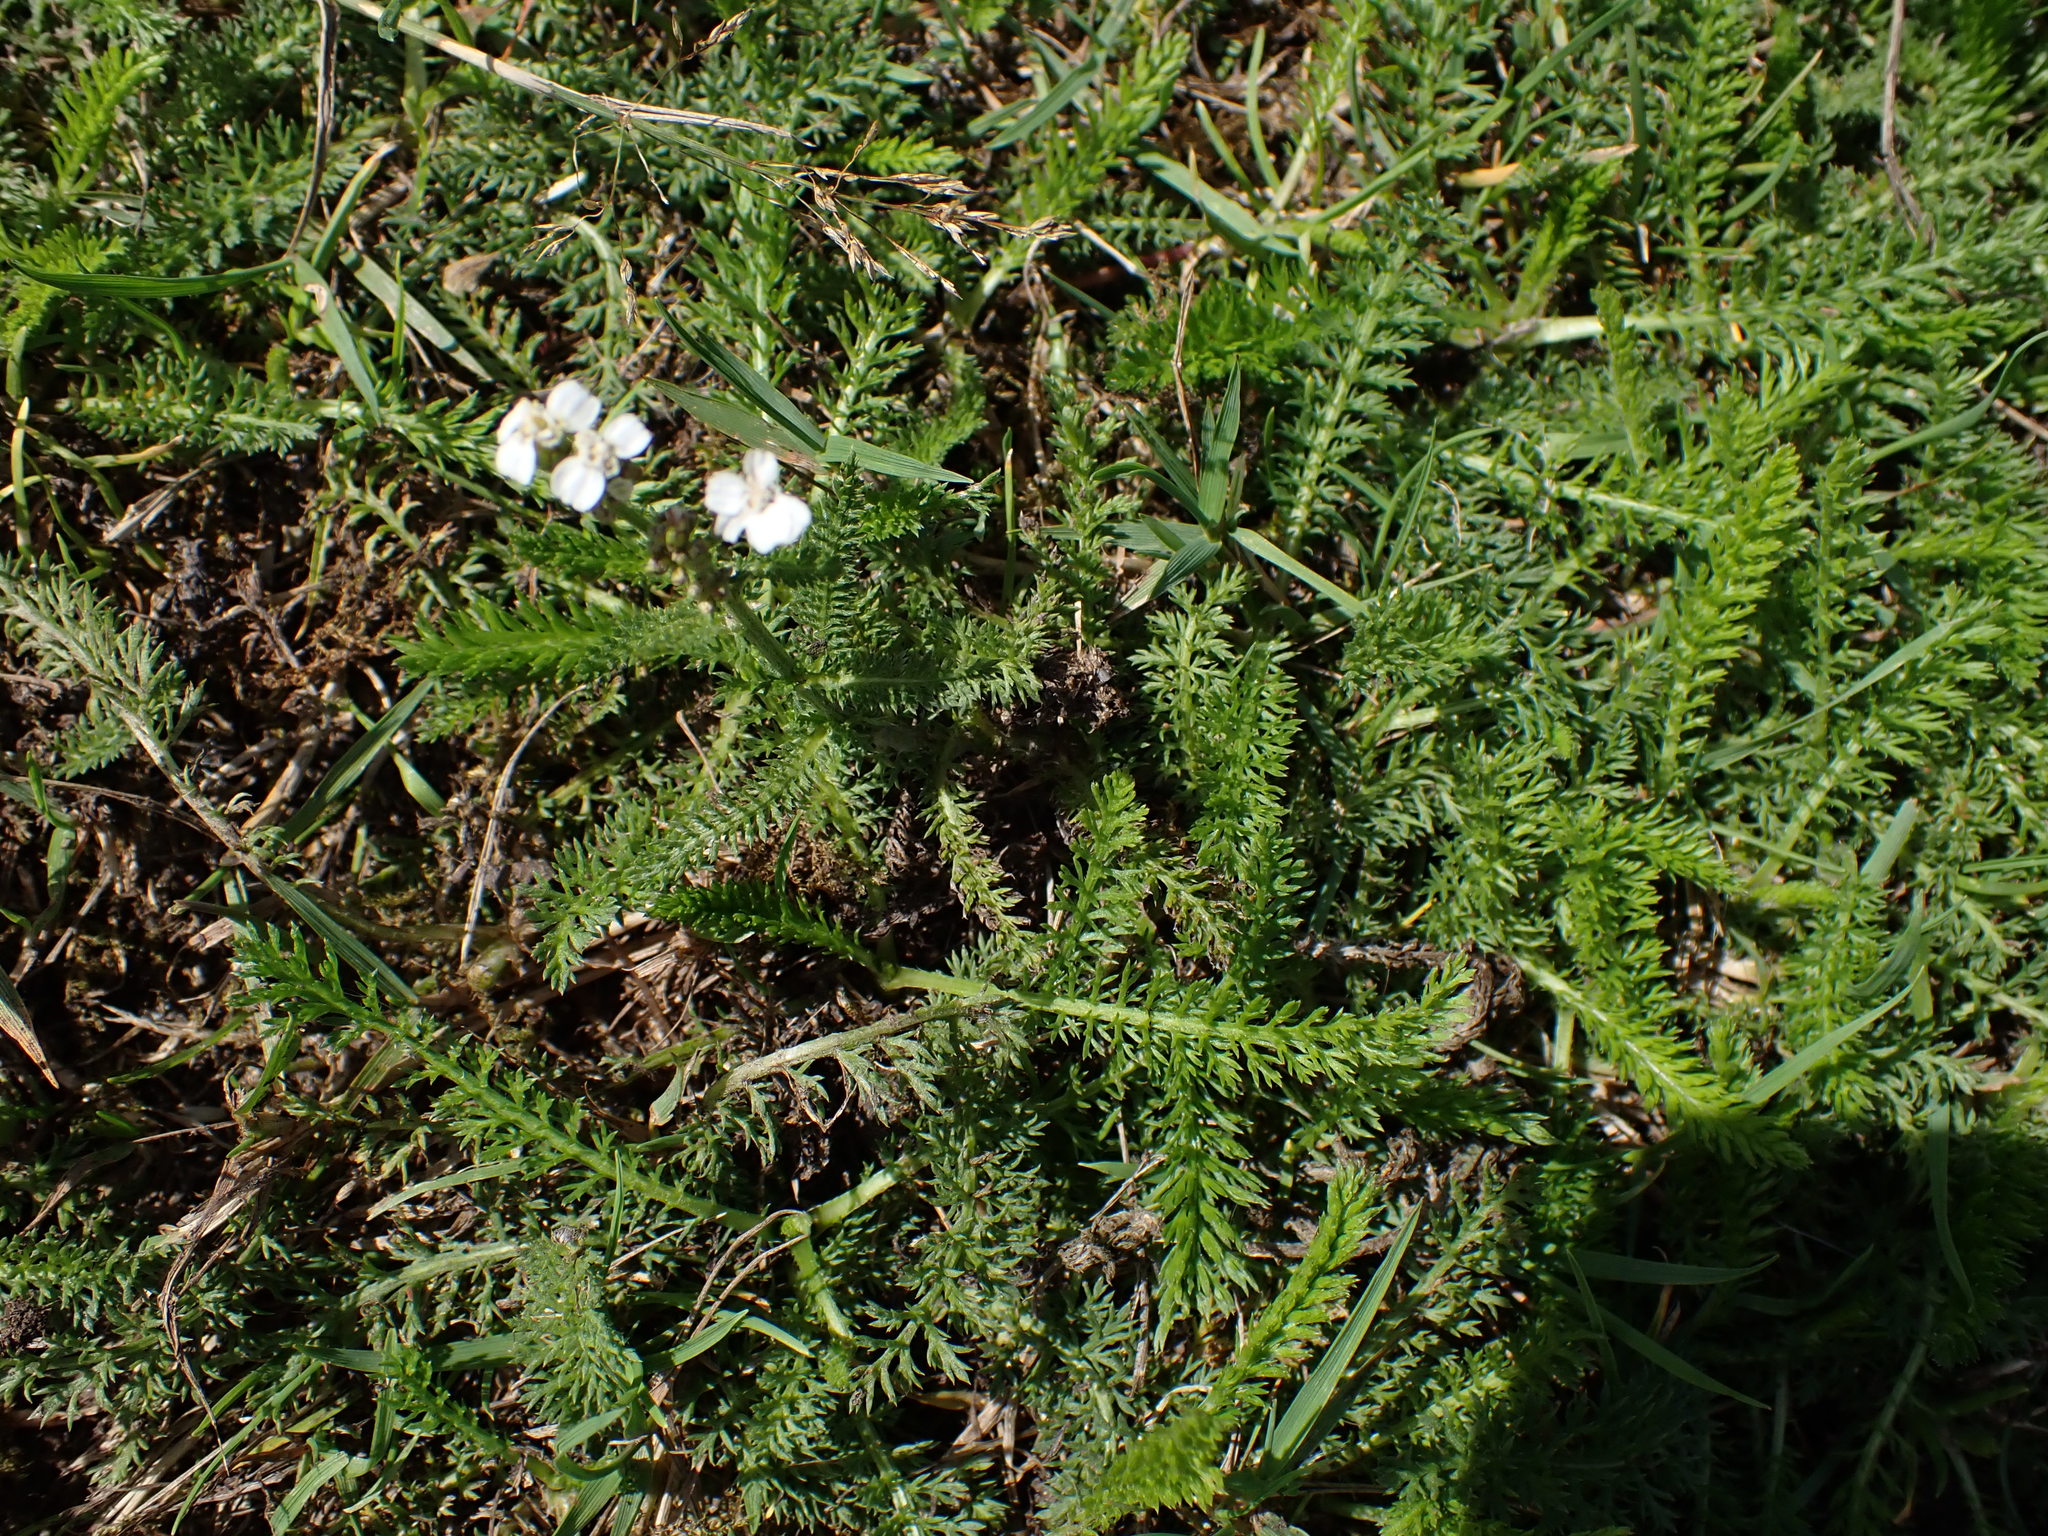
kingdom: Plantae
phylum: Tracheophyta
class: Magnoliopsida
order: Asterales
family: Asteraceae
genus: Achillea
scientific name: Achillea millefolium
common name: Yarrow
